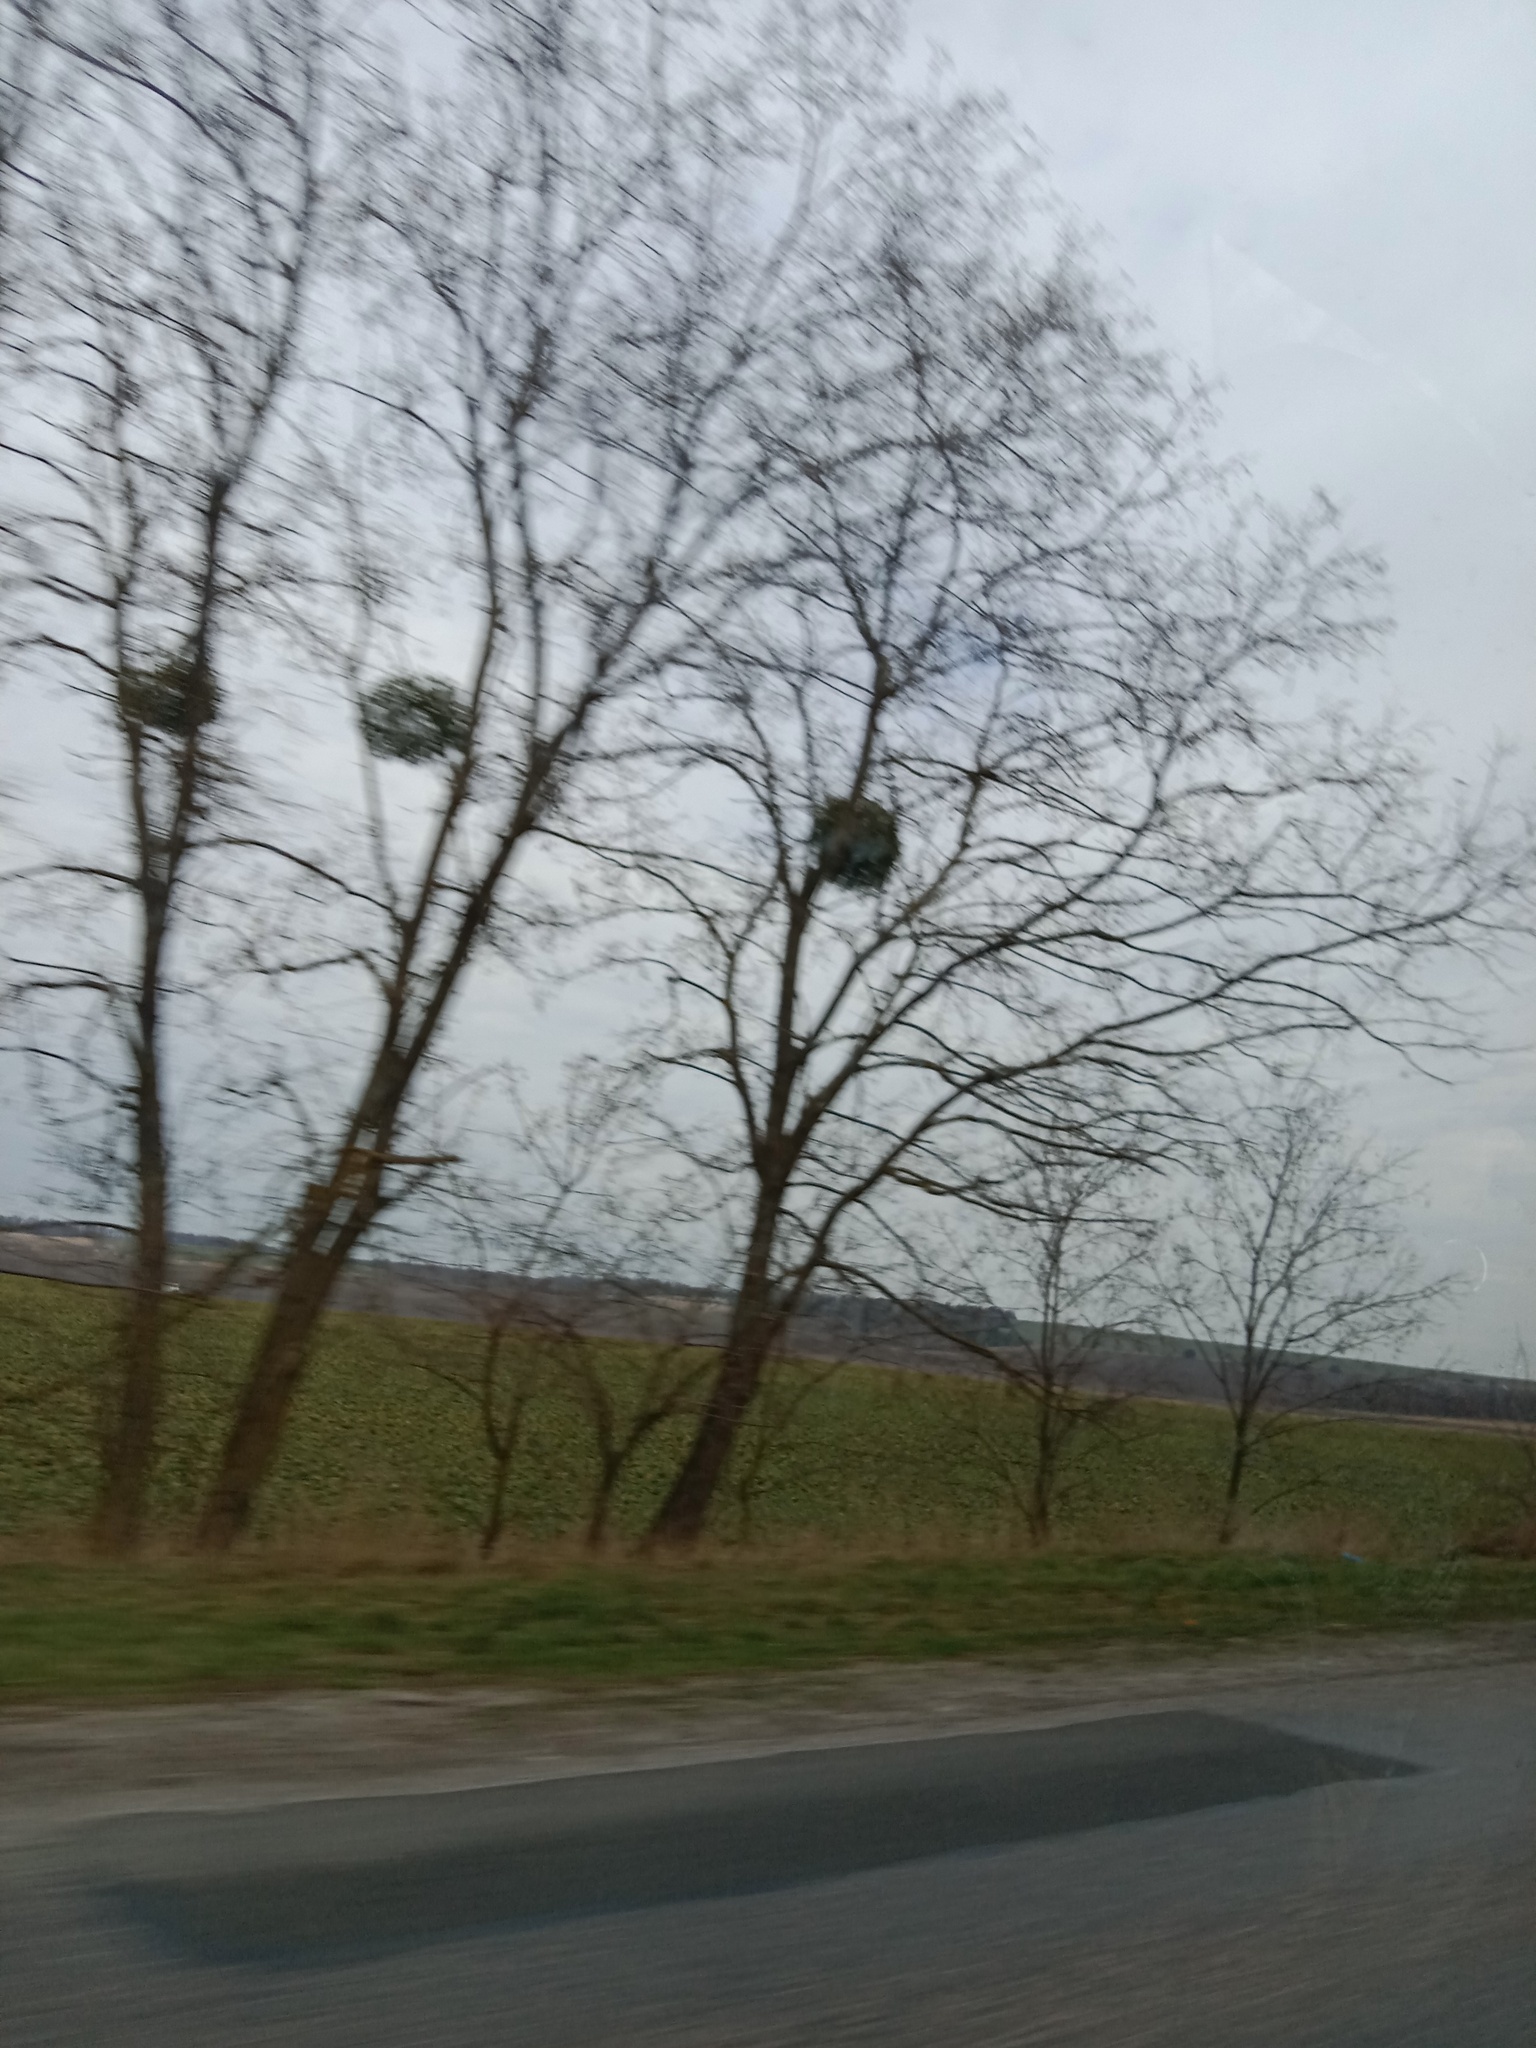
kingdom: Plantae
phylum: Tracheophyta
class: Magnoliopsida
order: Santalales
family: Viscaceae
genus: Viscum
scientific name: Viscum album
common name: Mistletoe
